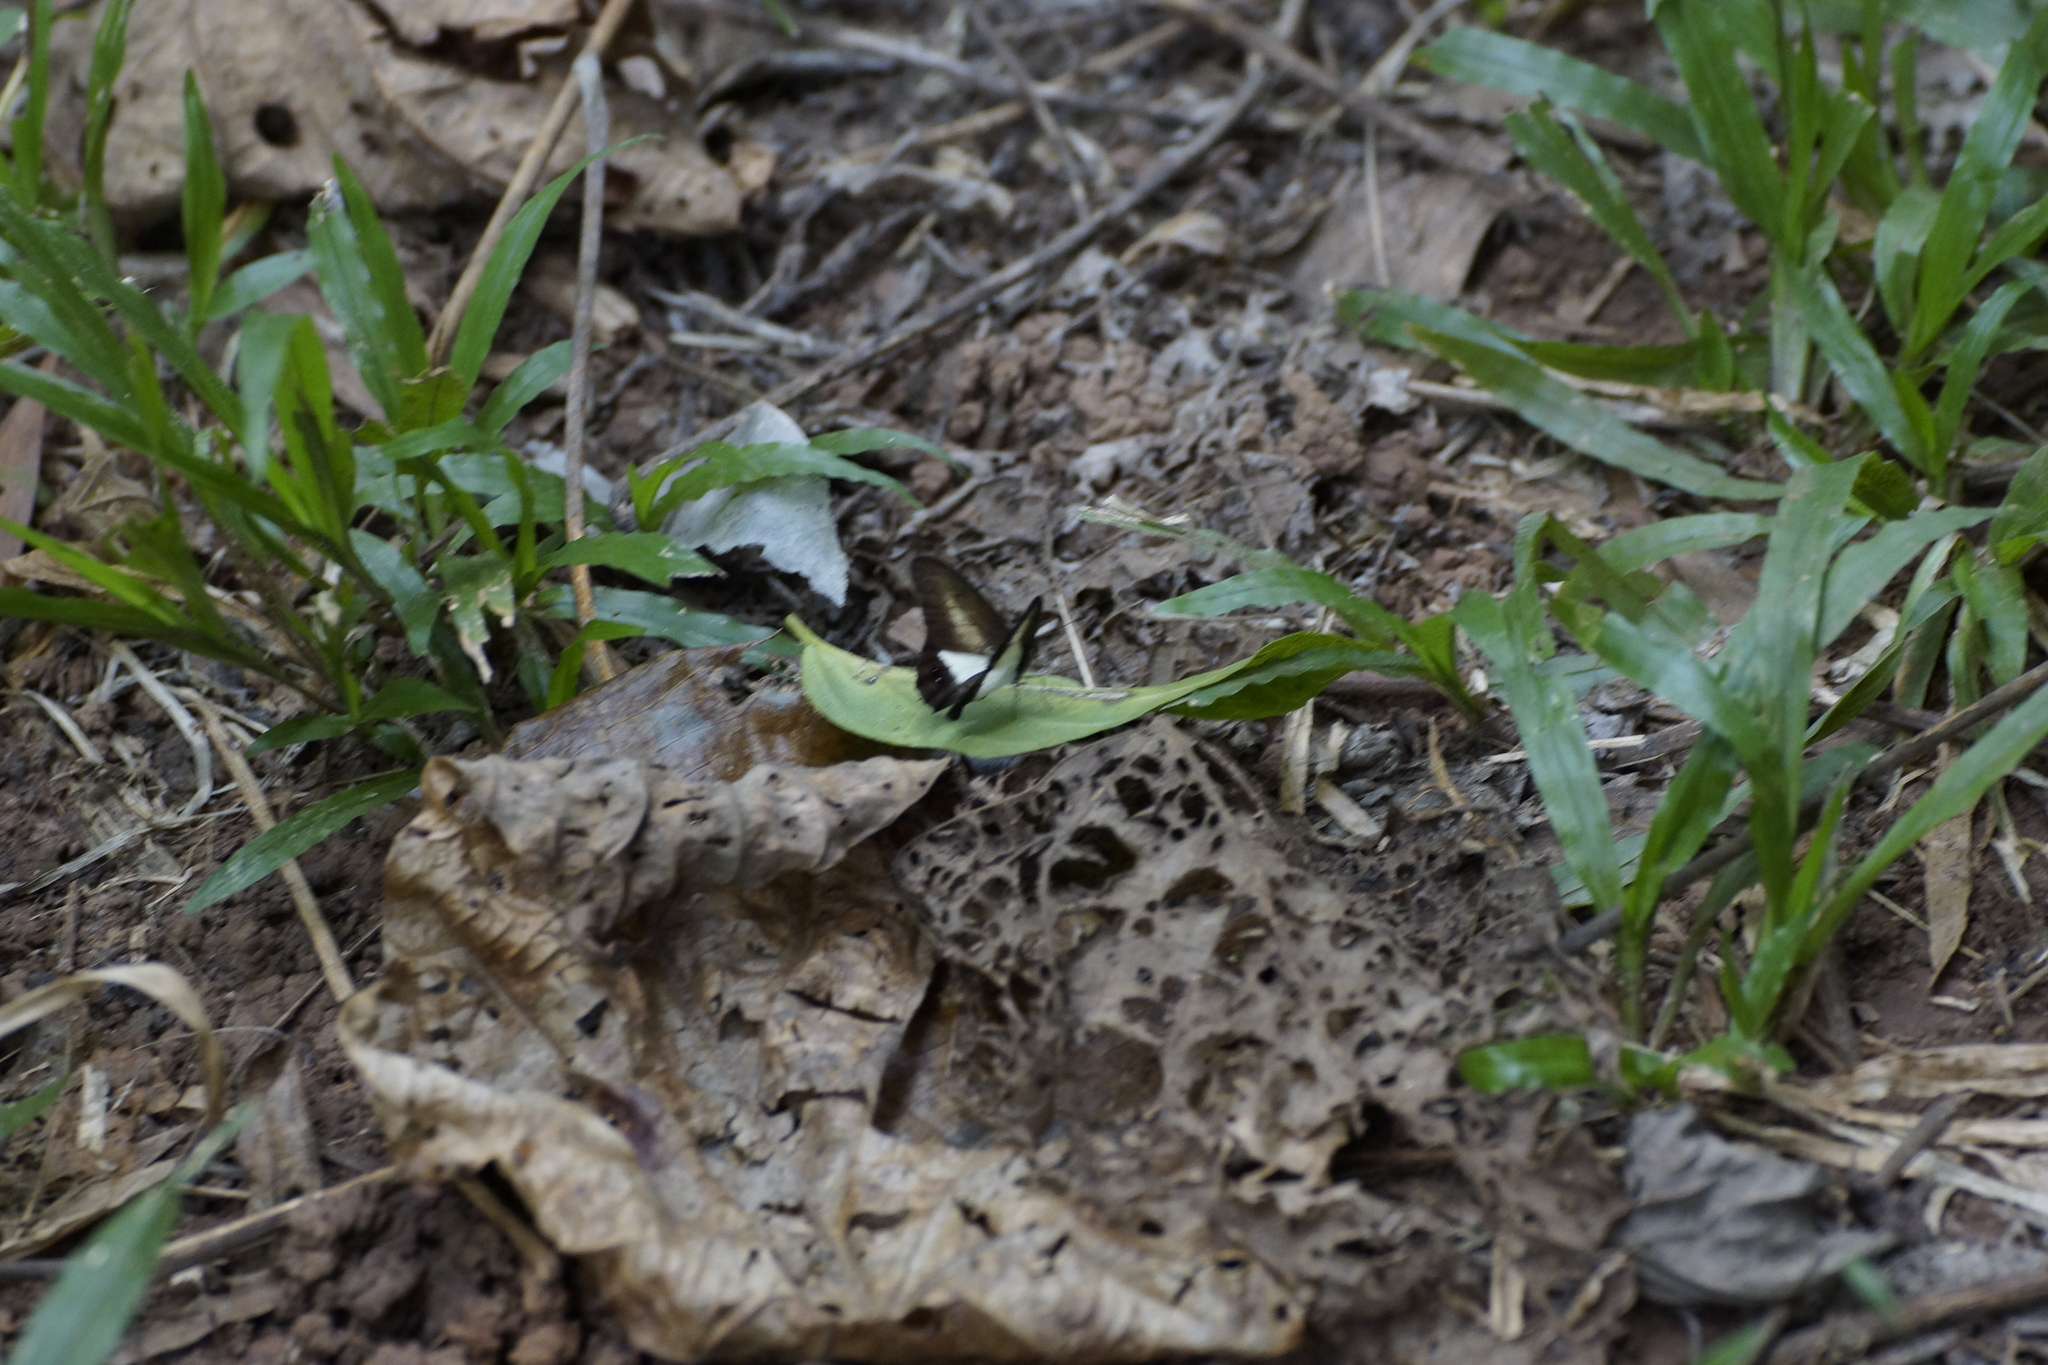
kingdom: Animalia
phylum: Arthropoda
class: Insecta
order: Lepidoptera
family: Nymphalidae
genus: Hypocysta
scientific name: Hypocysta angustata
